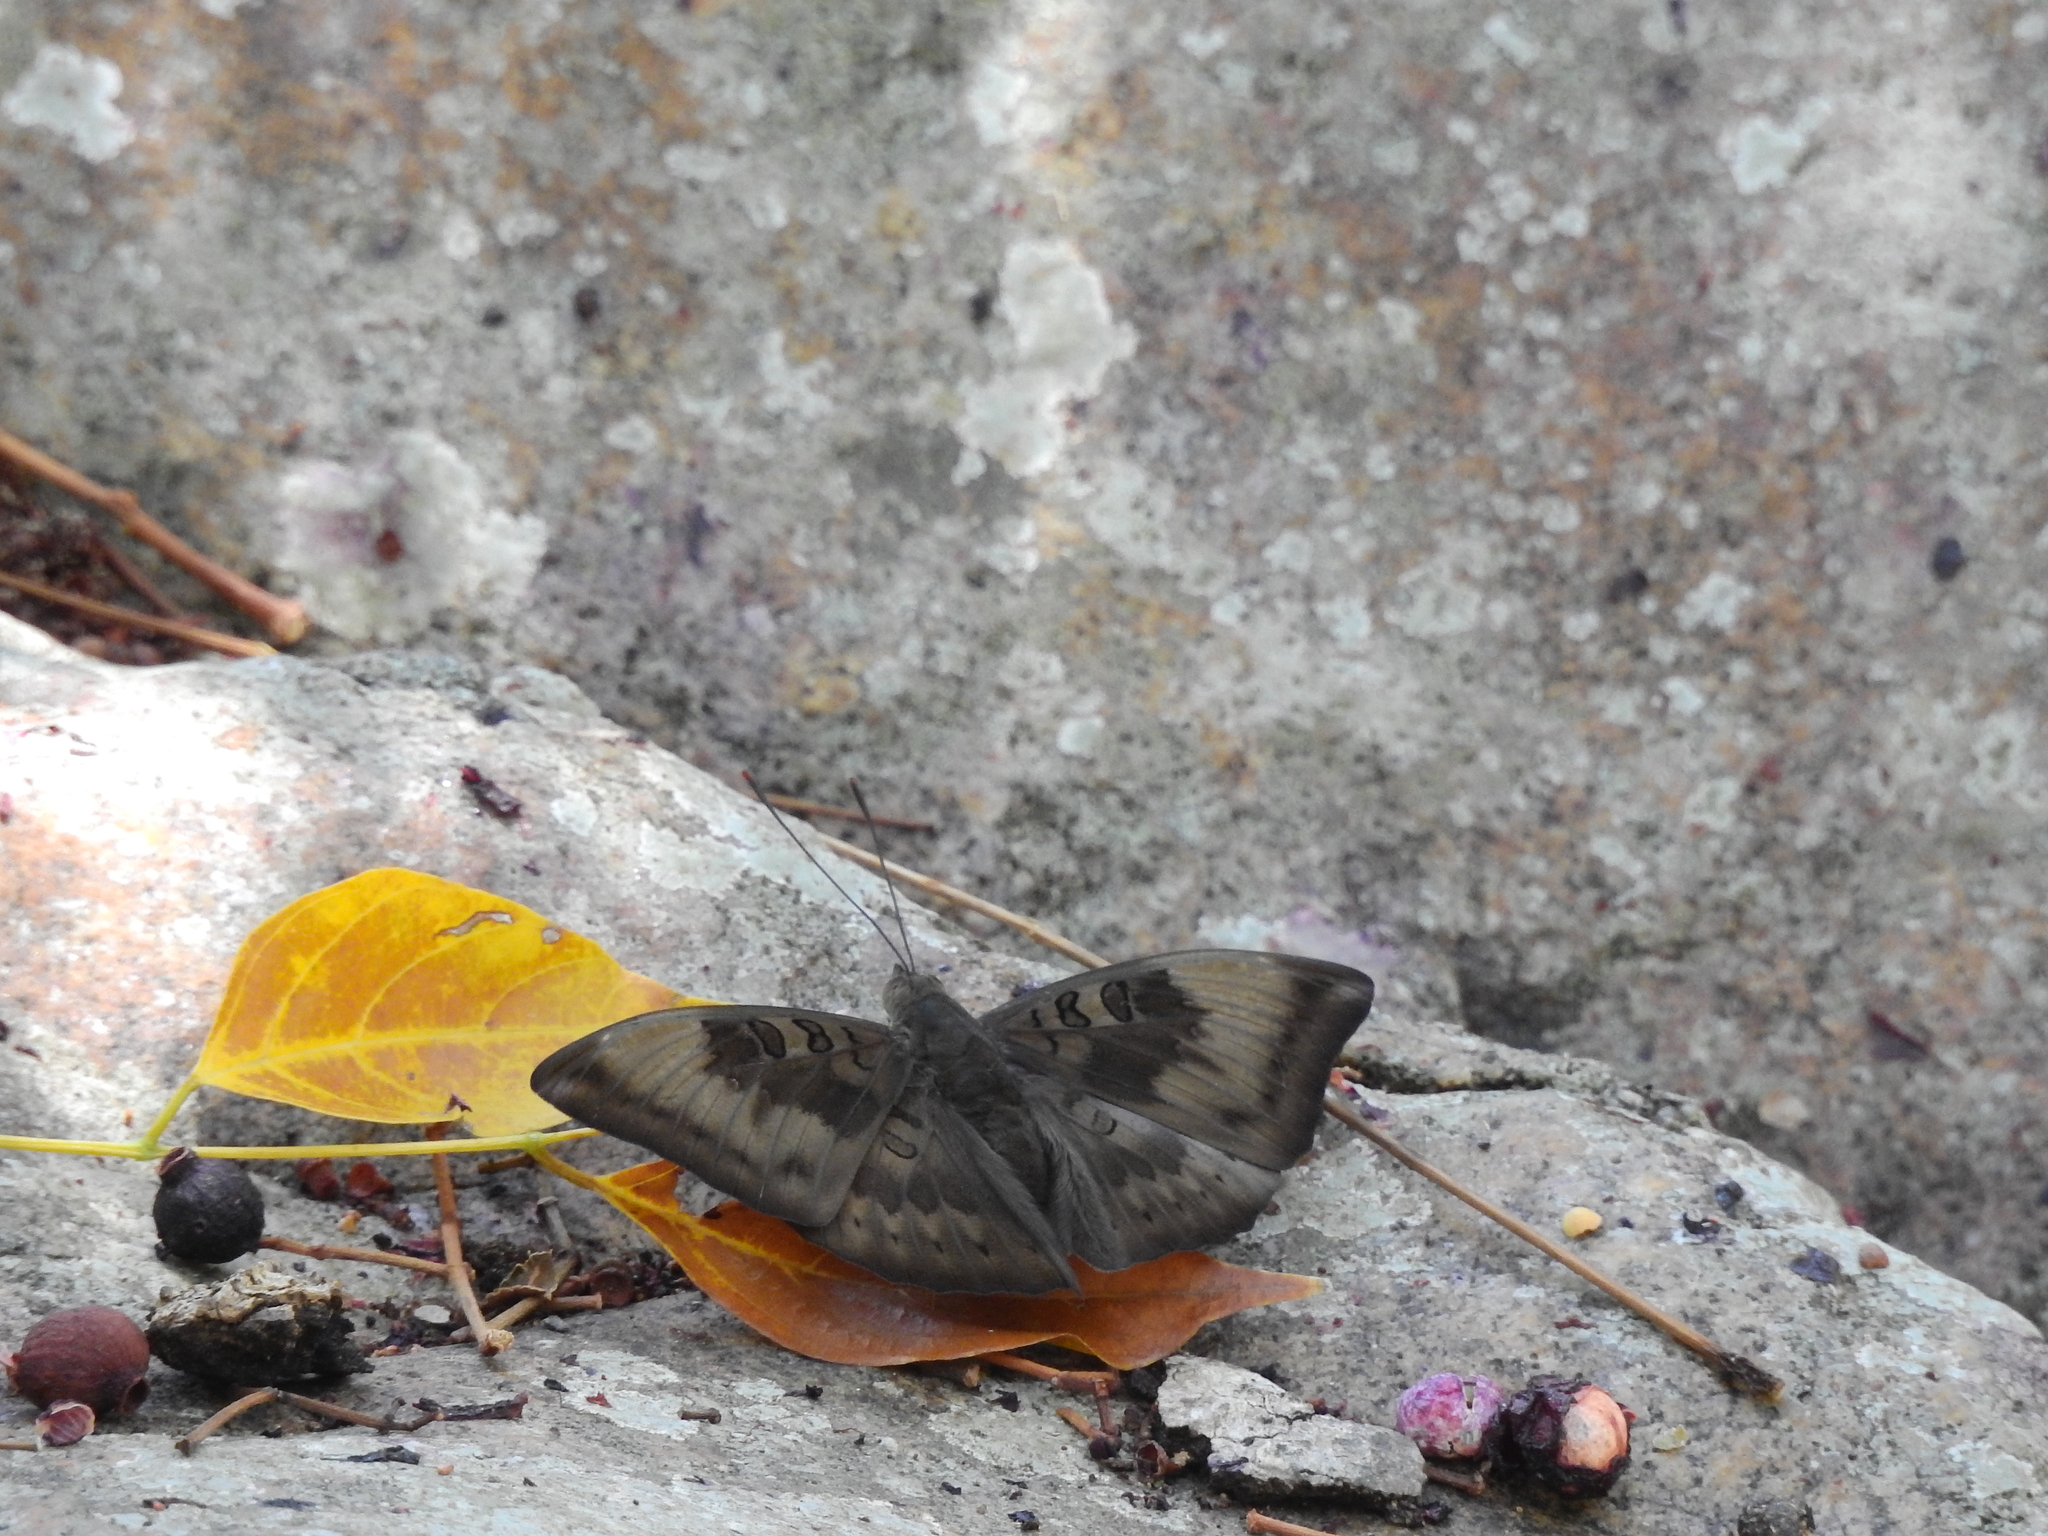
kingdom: Animalia
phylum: Arthropoda
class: Insecta
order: Lepidoptera
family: Nymphalidae
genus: Euthalia
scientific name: Euthalia aconthea
